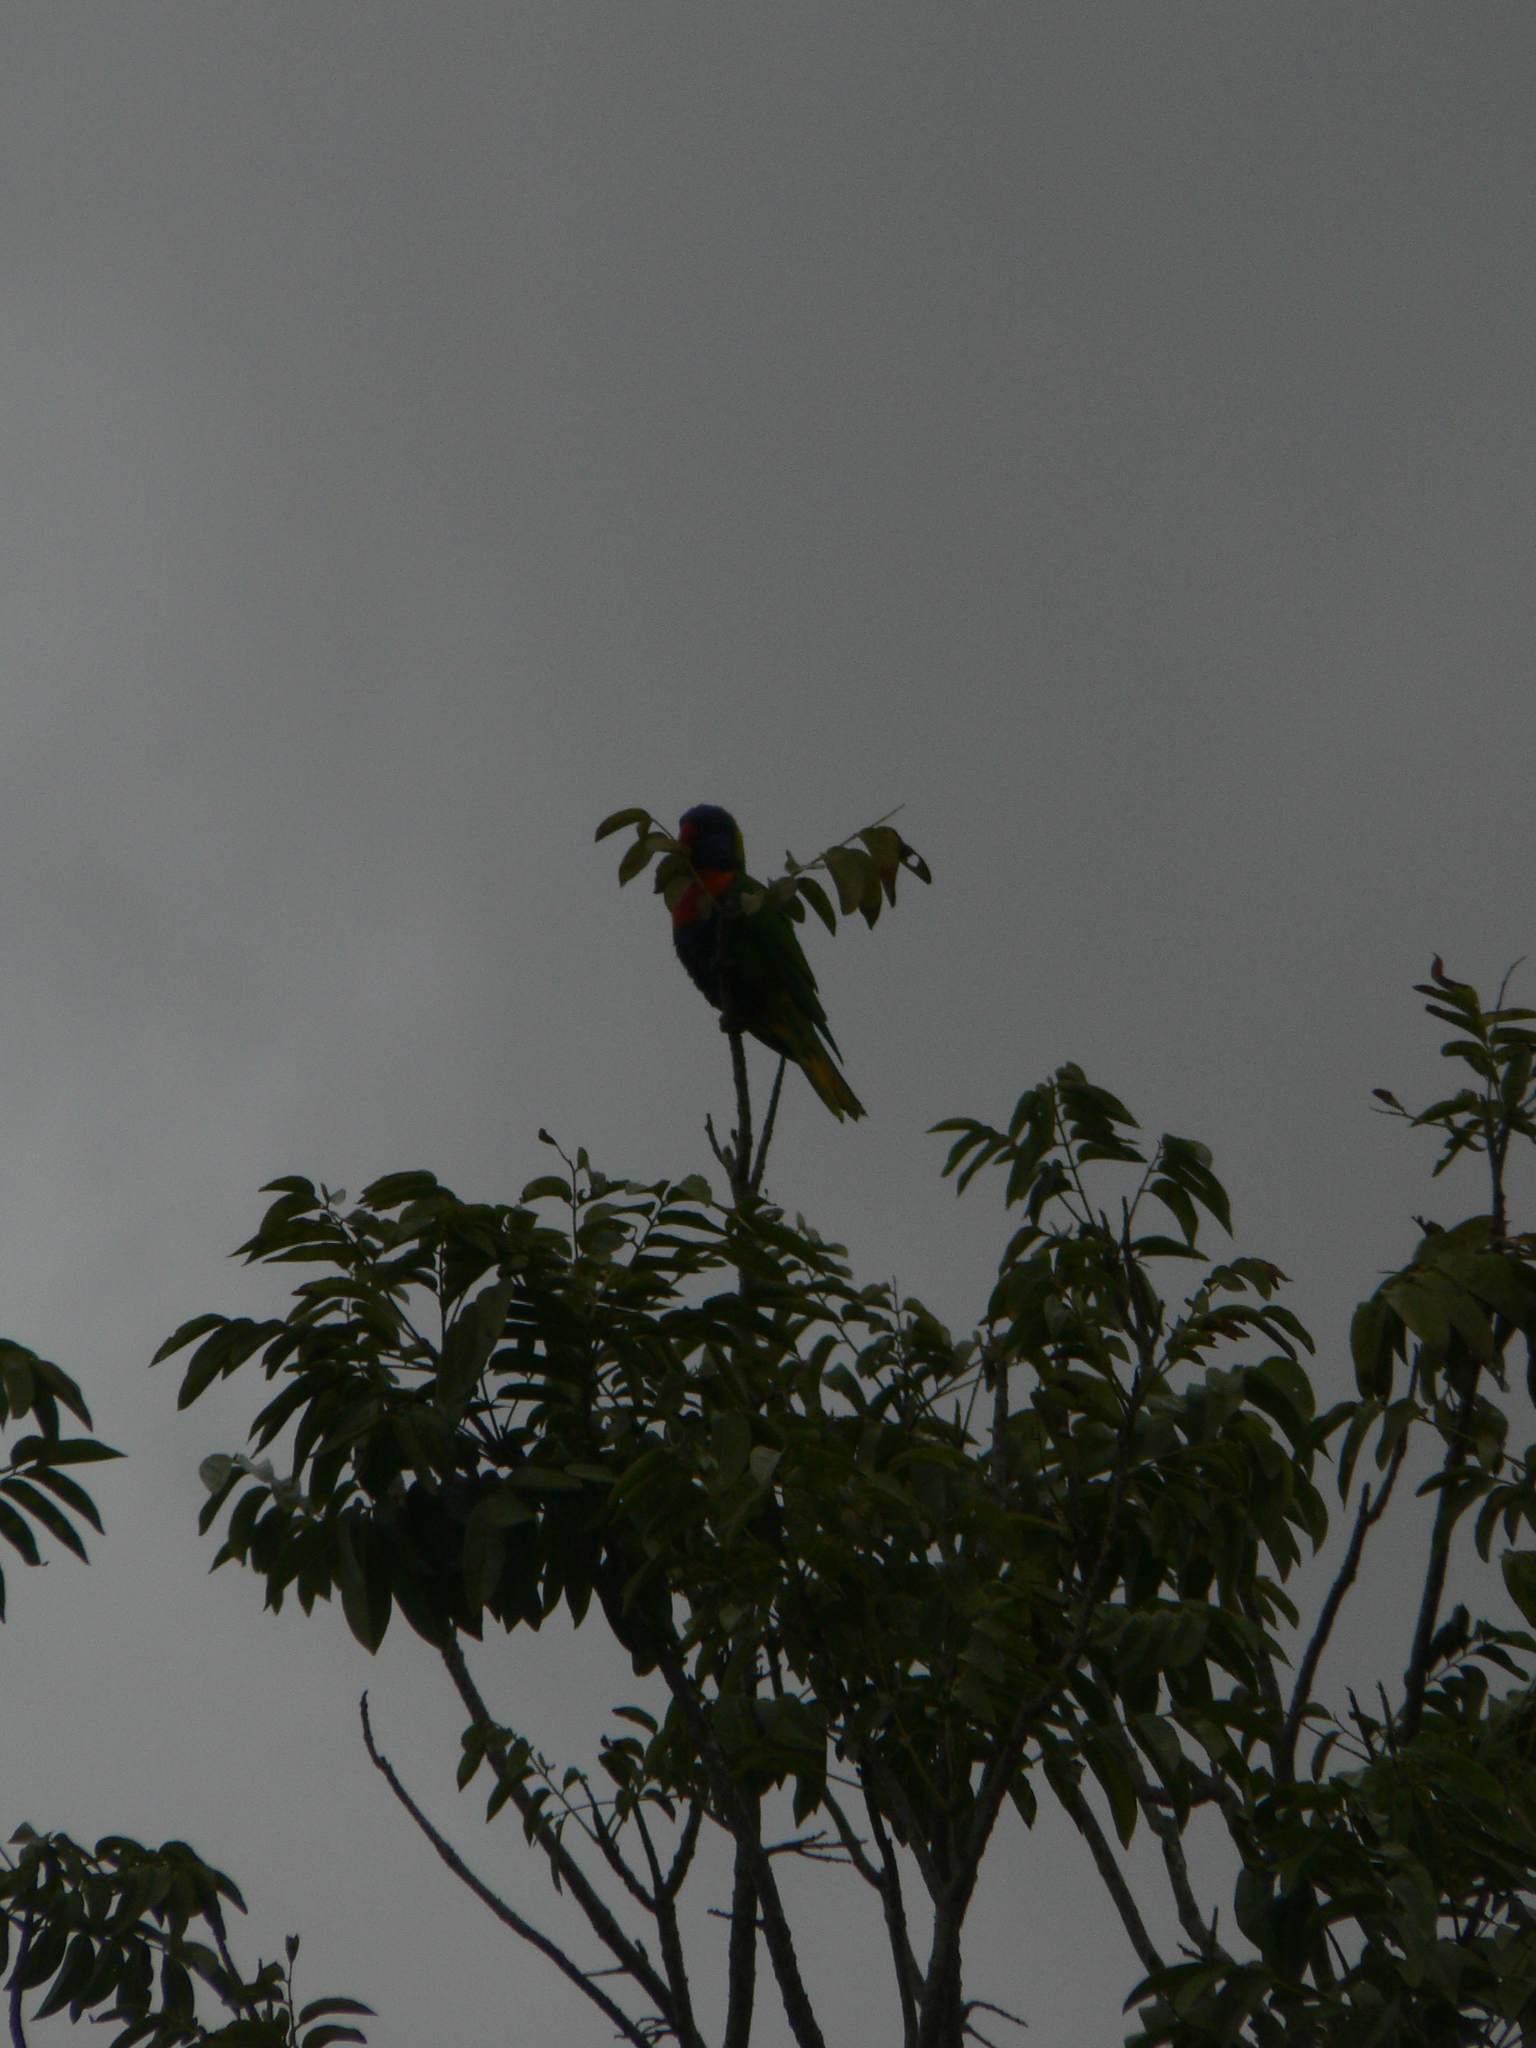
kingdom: Animalia
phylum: Chordata
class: Aves
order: Psittaciformes
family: Psittacidae
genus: Trichoglossus
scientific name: Trichoglossus haematodus
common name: Coconut lorikeet
